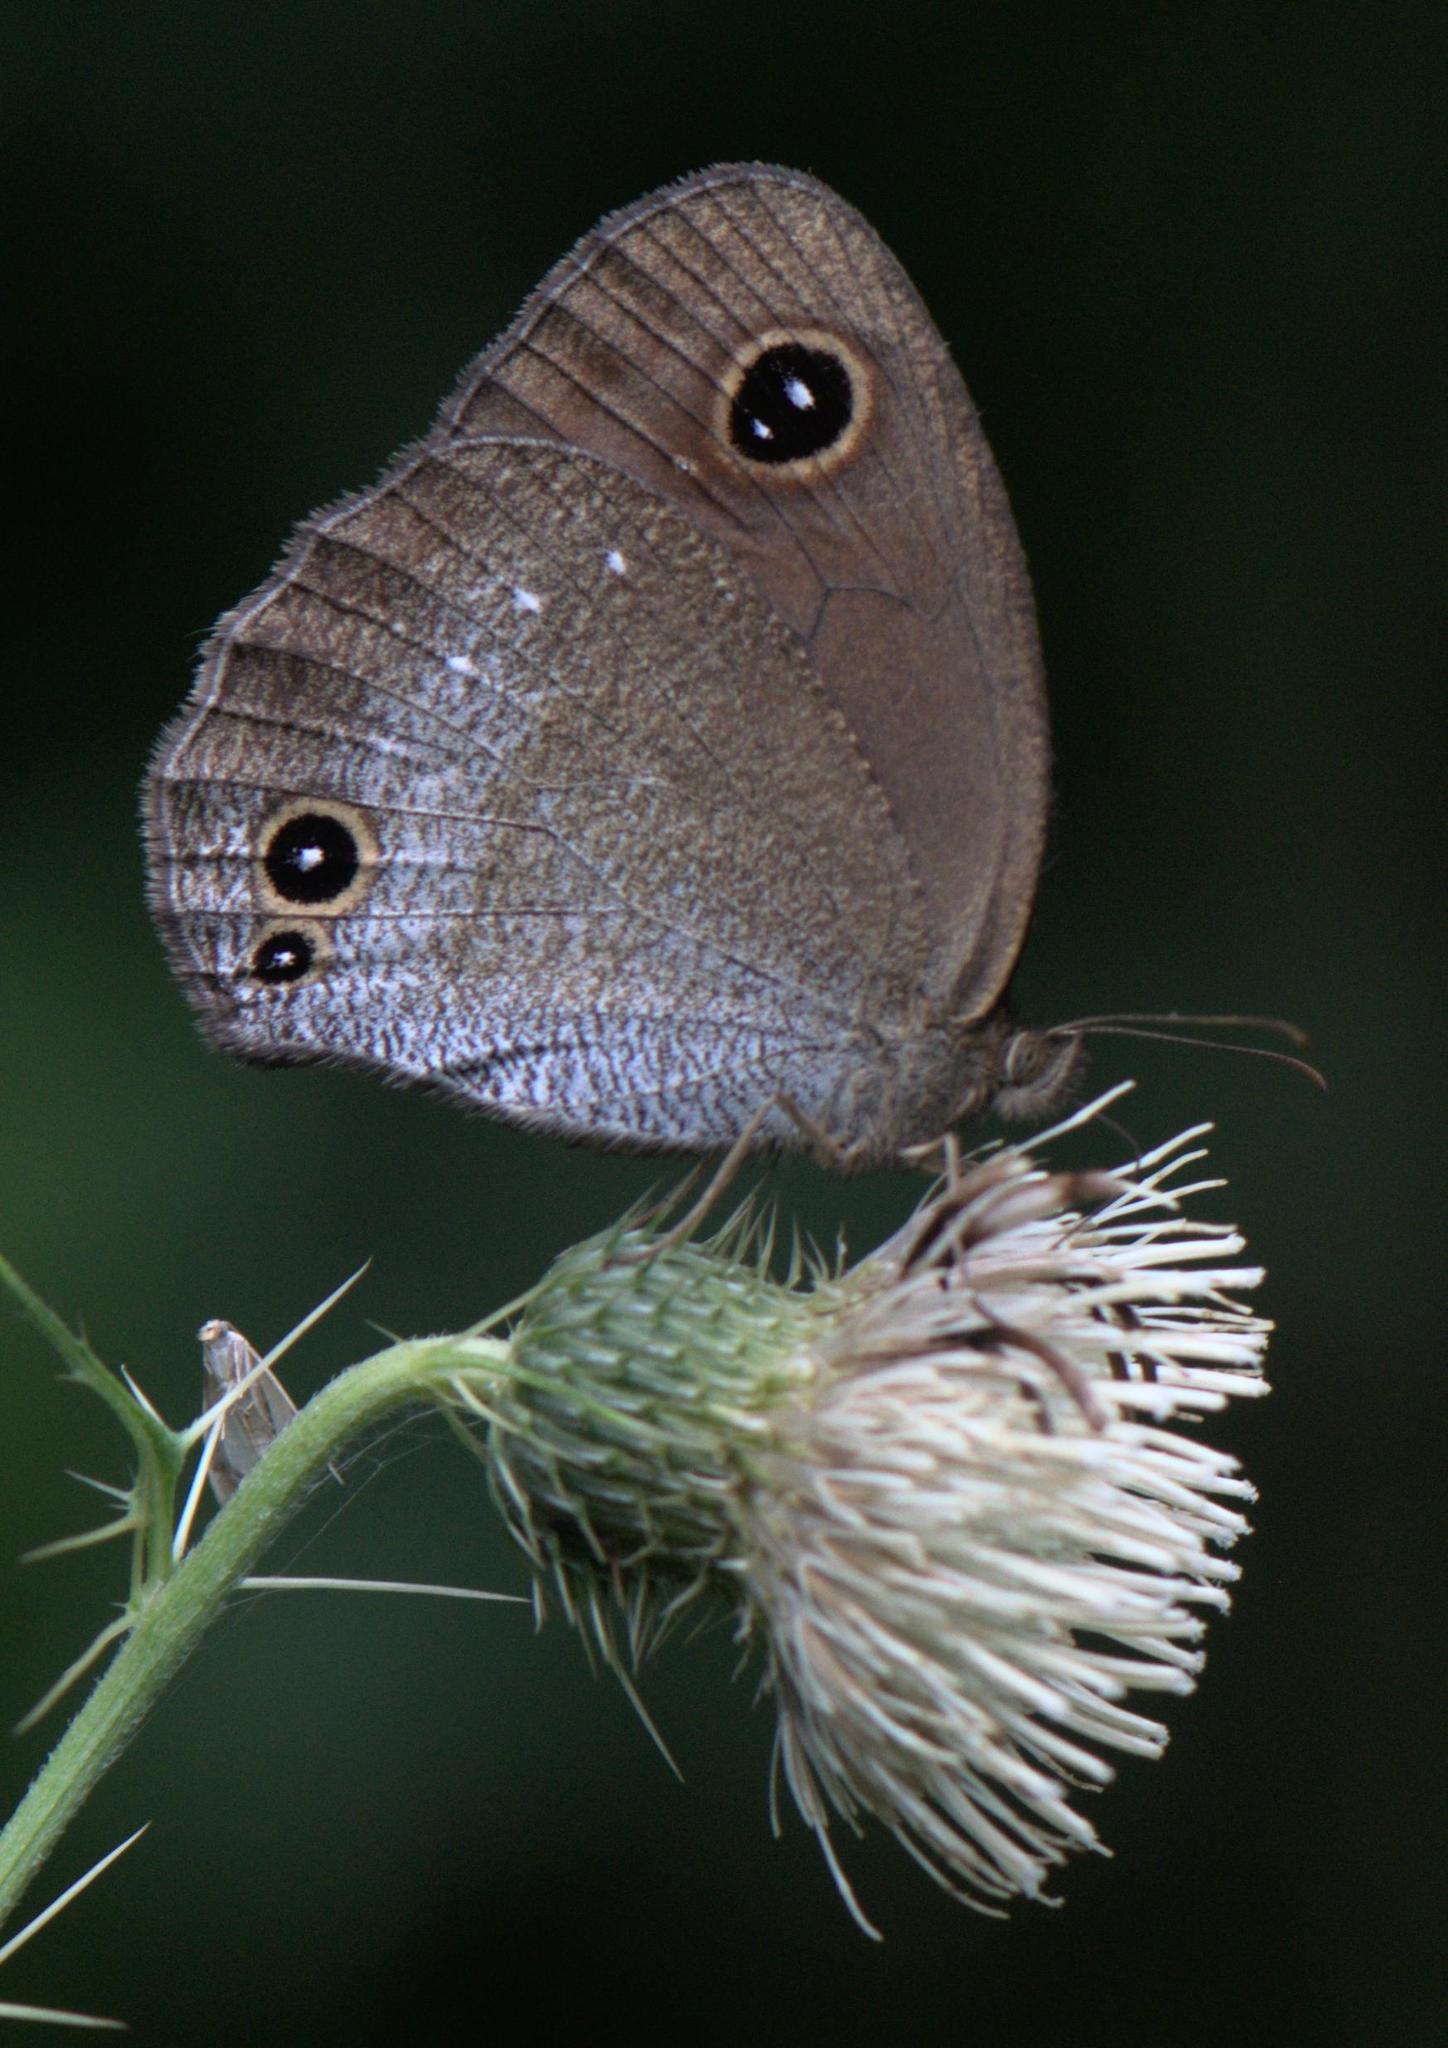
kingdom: Animalia
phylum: Arthropoda
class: Insecta
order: Lepidoptera
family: Nymphalidae
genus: Callerebia
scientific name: Callerebia scanda
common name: Pallid argus
